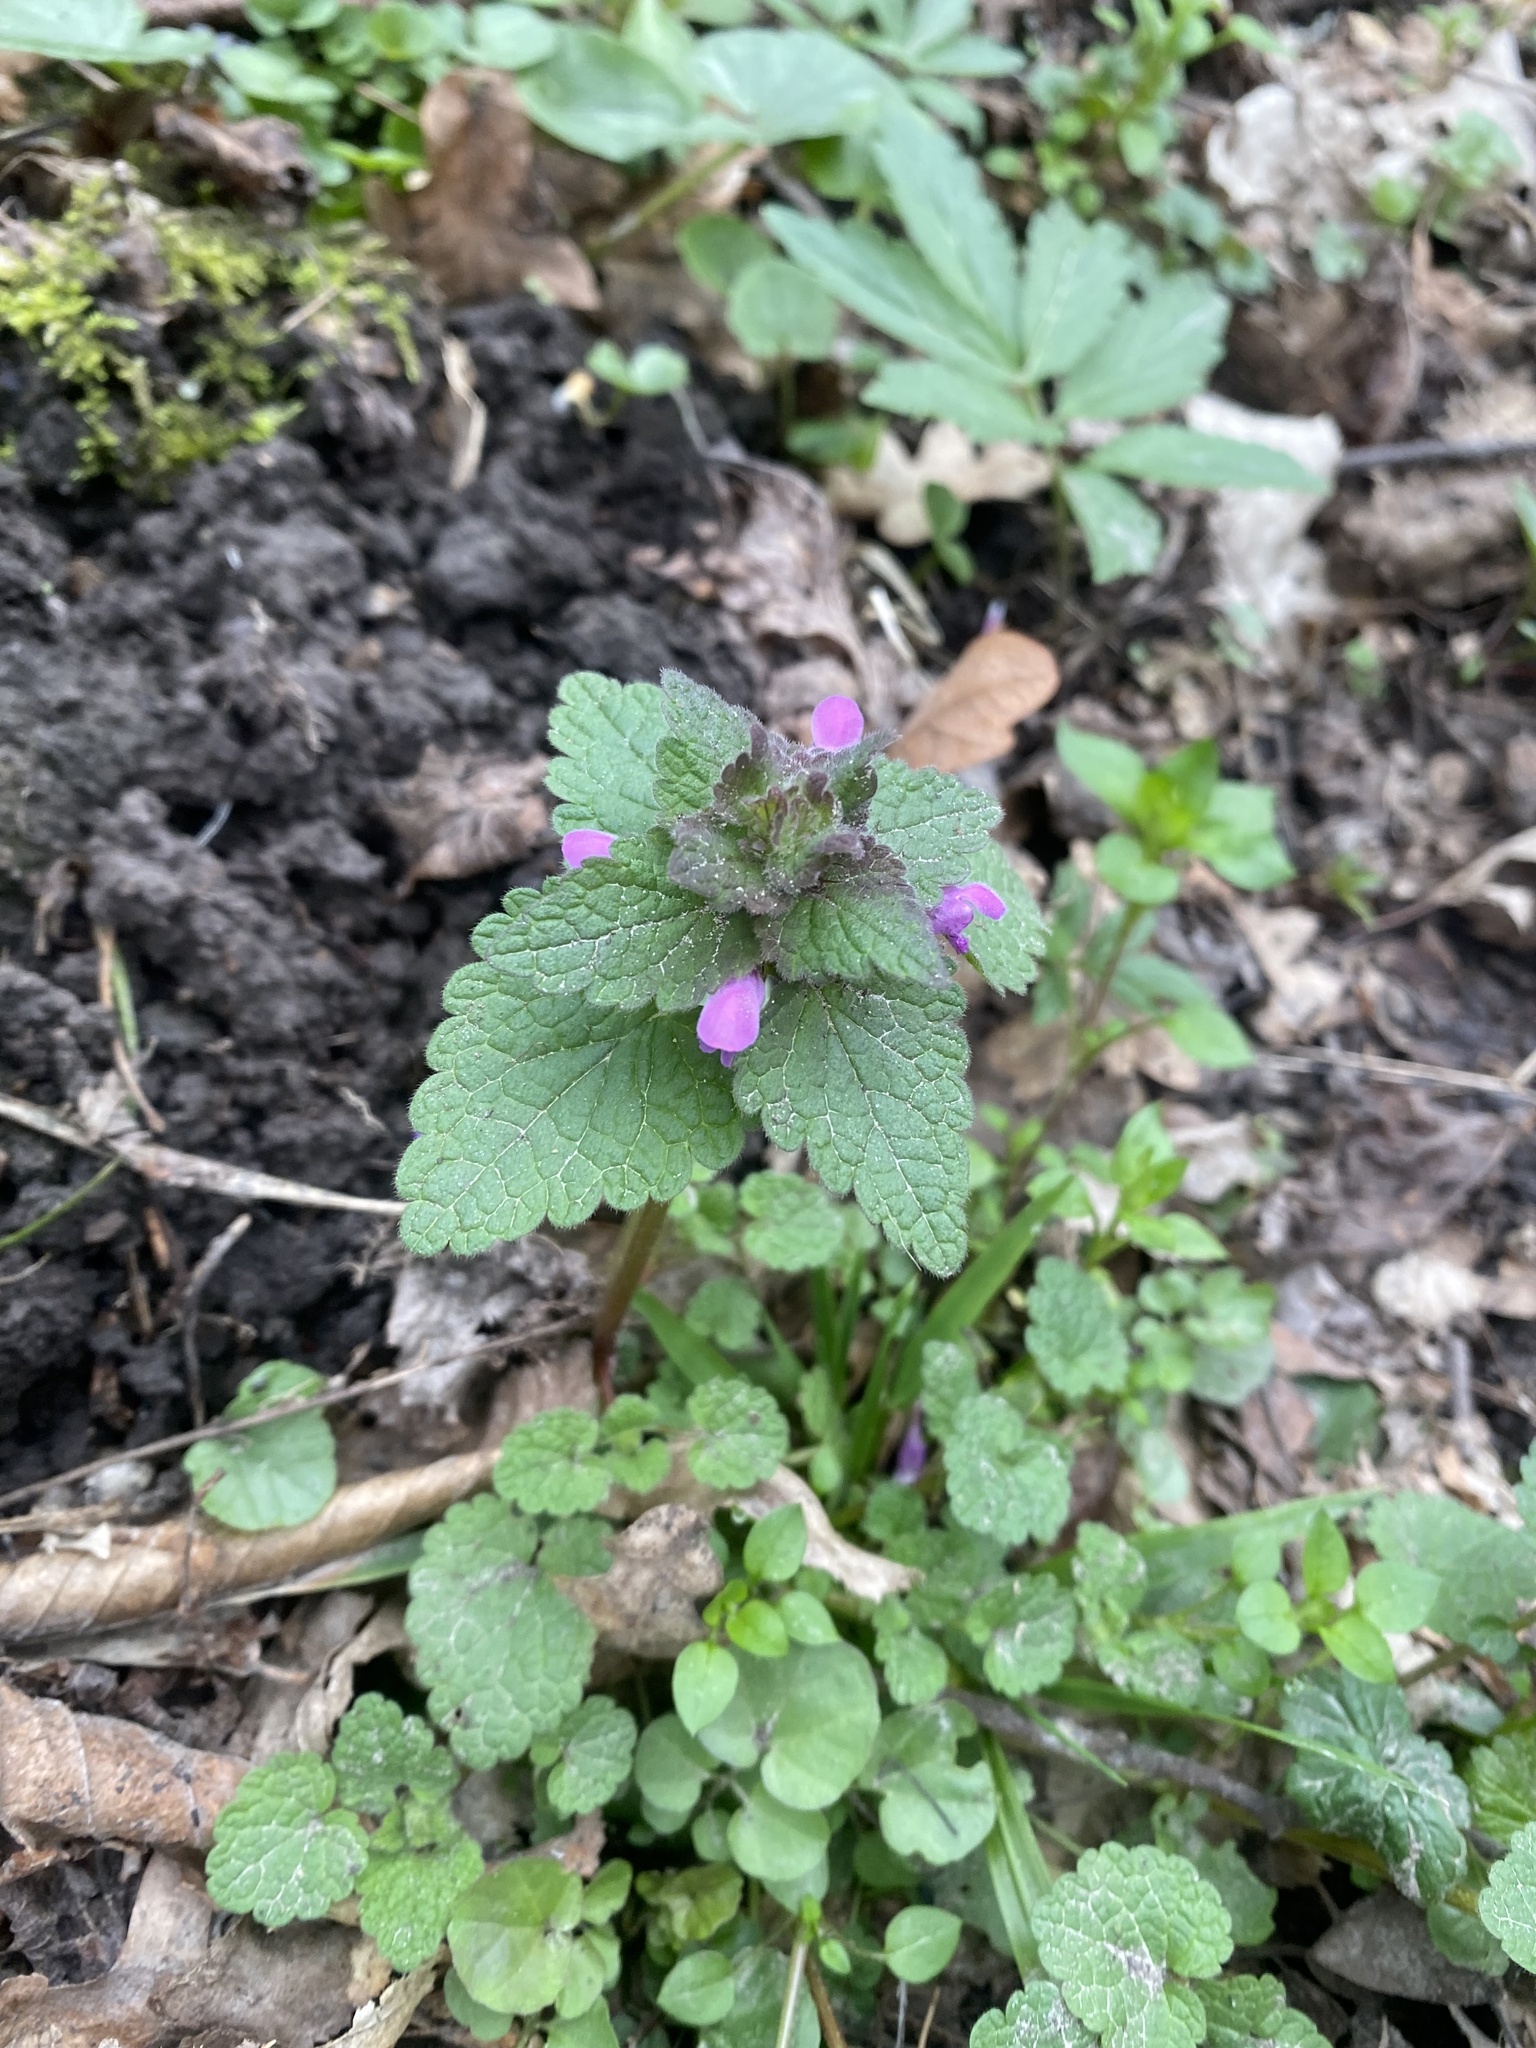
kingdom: Plantae
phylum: Tracheophyta
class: Magnoliopsida
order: Lamiales
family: Lamiaceae
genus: Lamium
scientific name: Lamium purpureum
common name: Red dead-nettle
